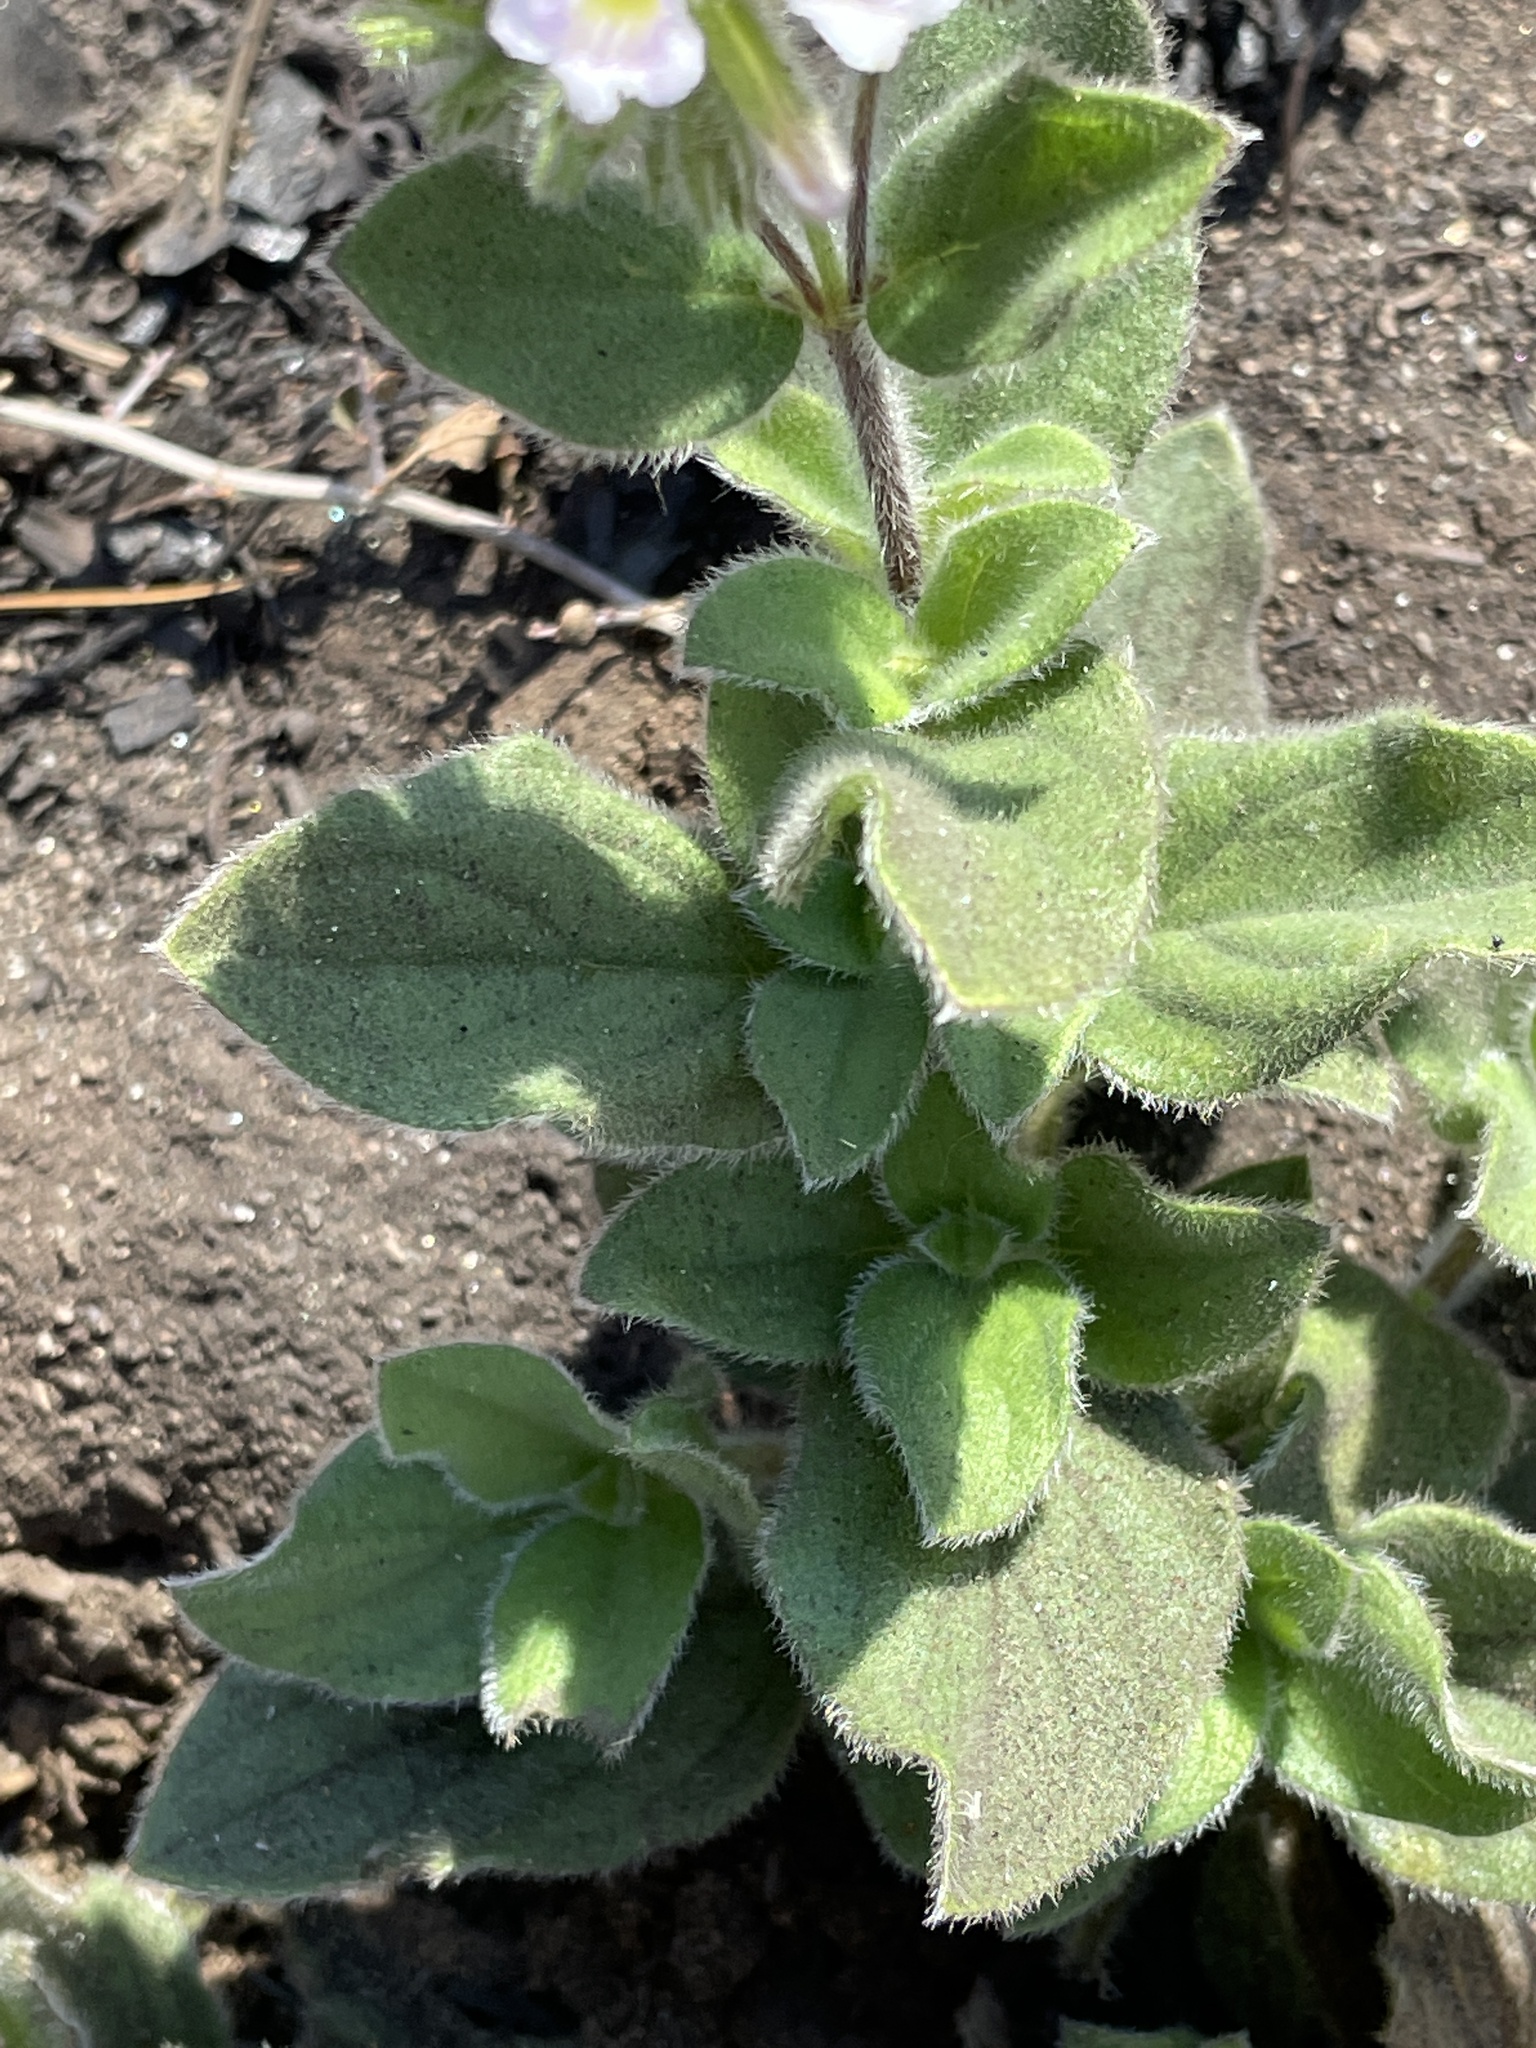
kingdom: Plantae
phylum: Tracheophyta
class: Magnoliopsida
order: Boraginales
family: Hydrophyllaceae
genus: Draperia
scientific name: Draperia systyla
